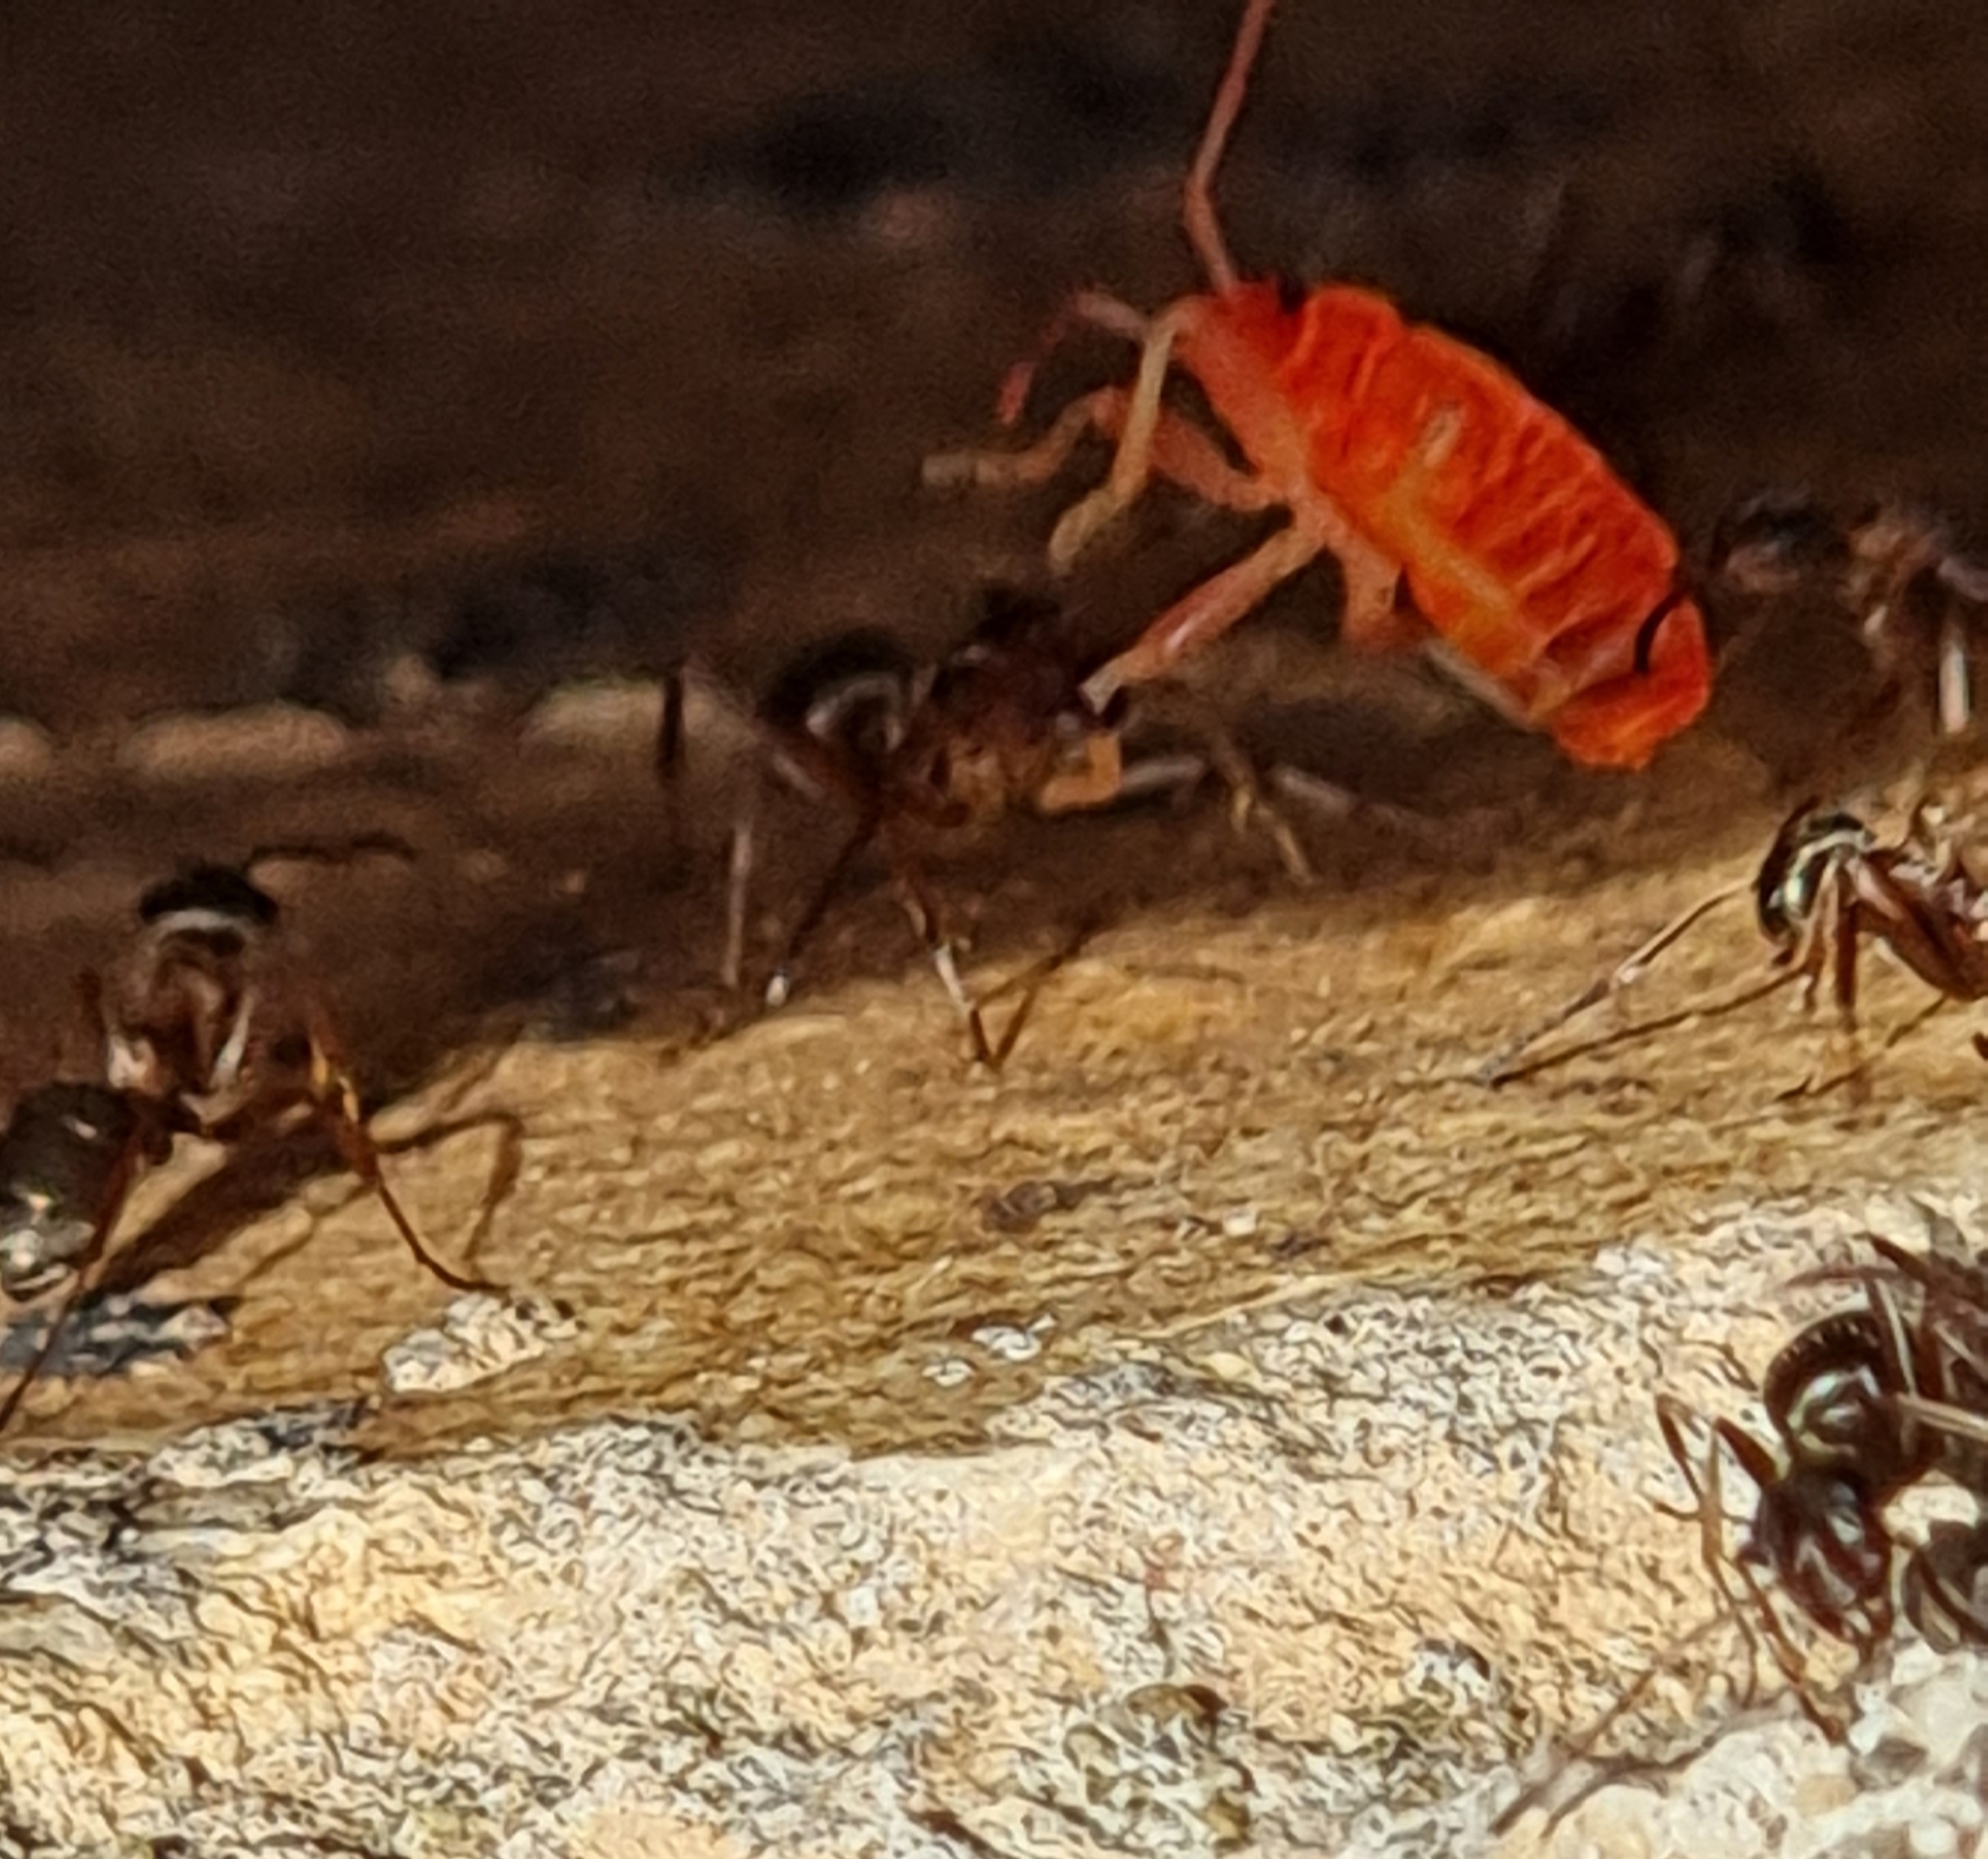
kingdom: Animalia
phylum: Arthropoda
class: Insecta
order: Hemiptera
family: Pyrrhocoridae
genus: Pyrrhocoris
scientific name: Pyrrhocoris apterus
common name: Firebug
